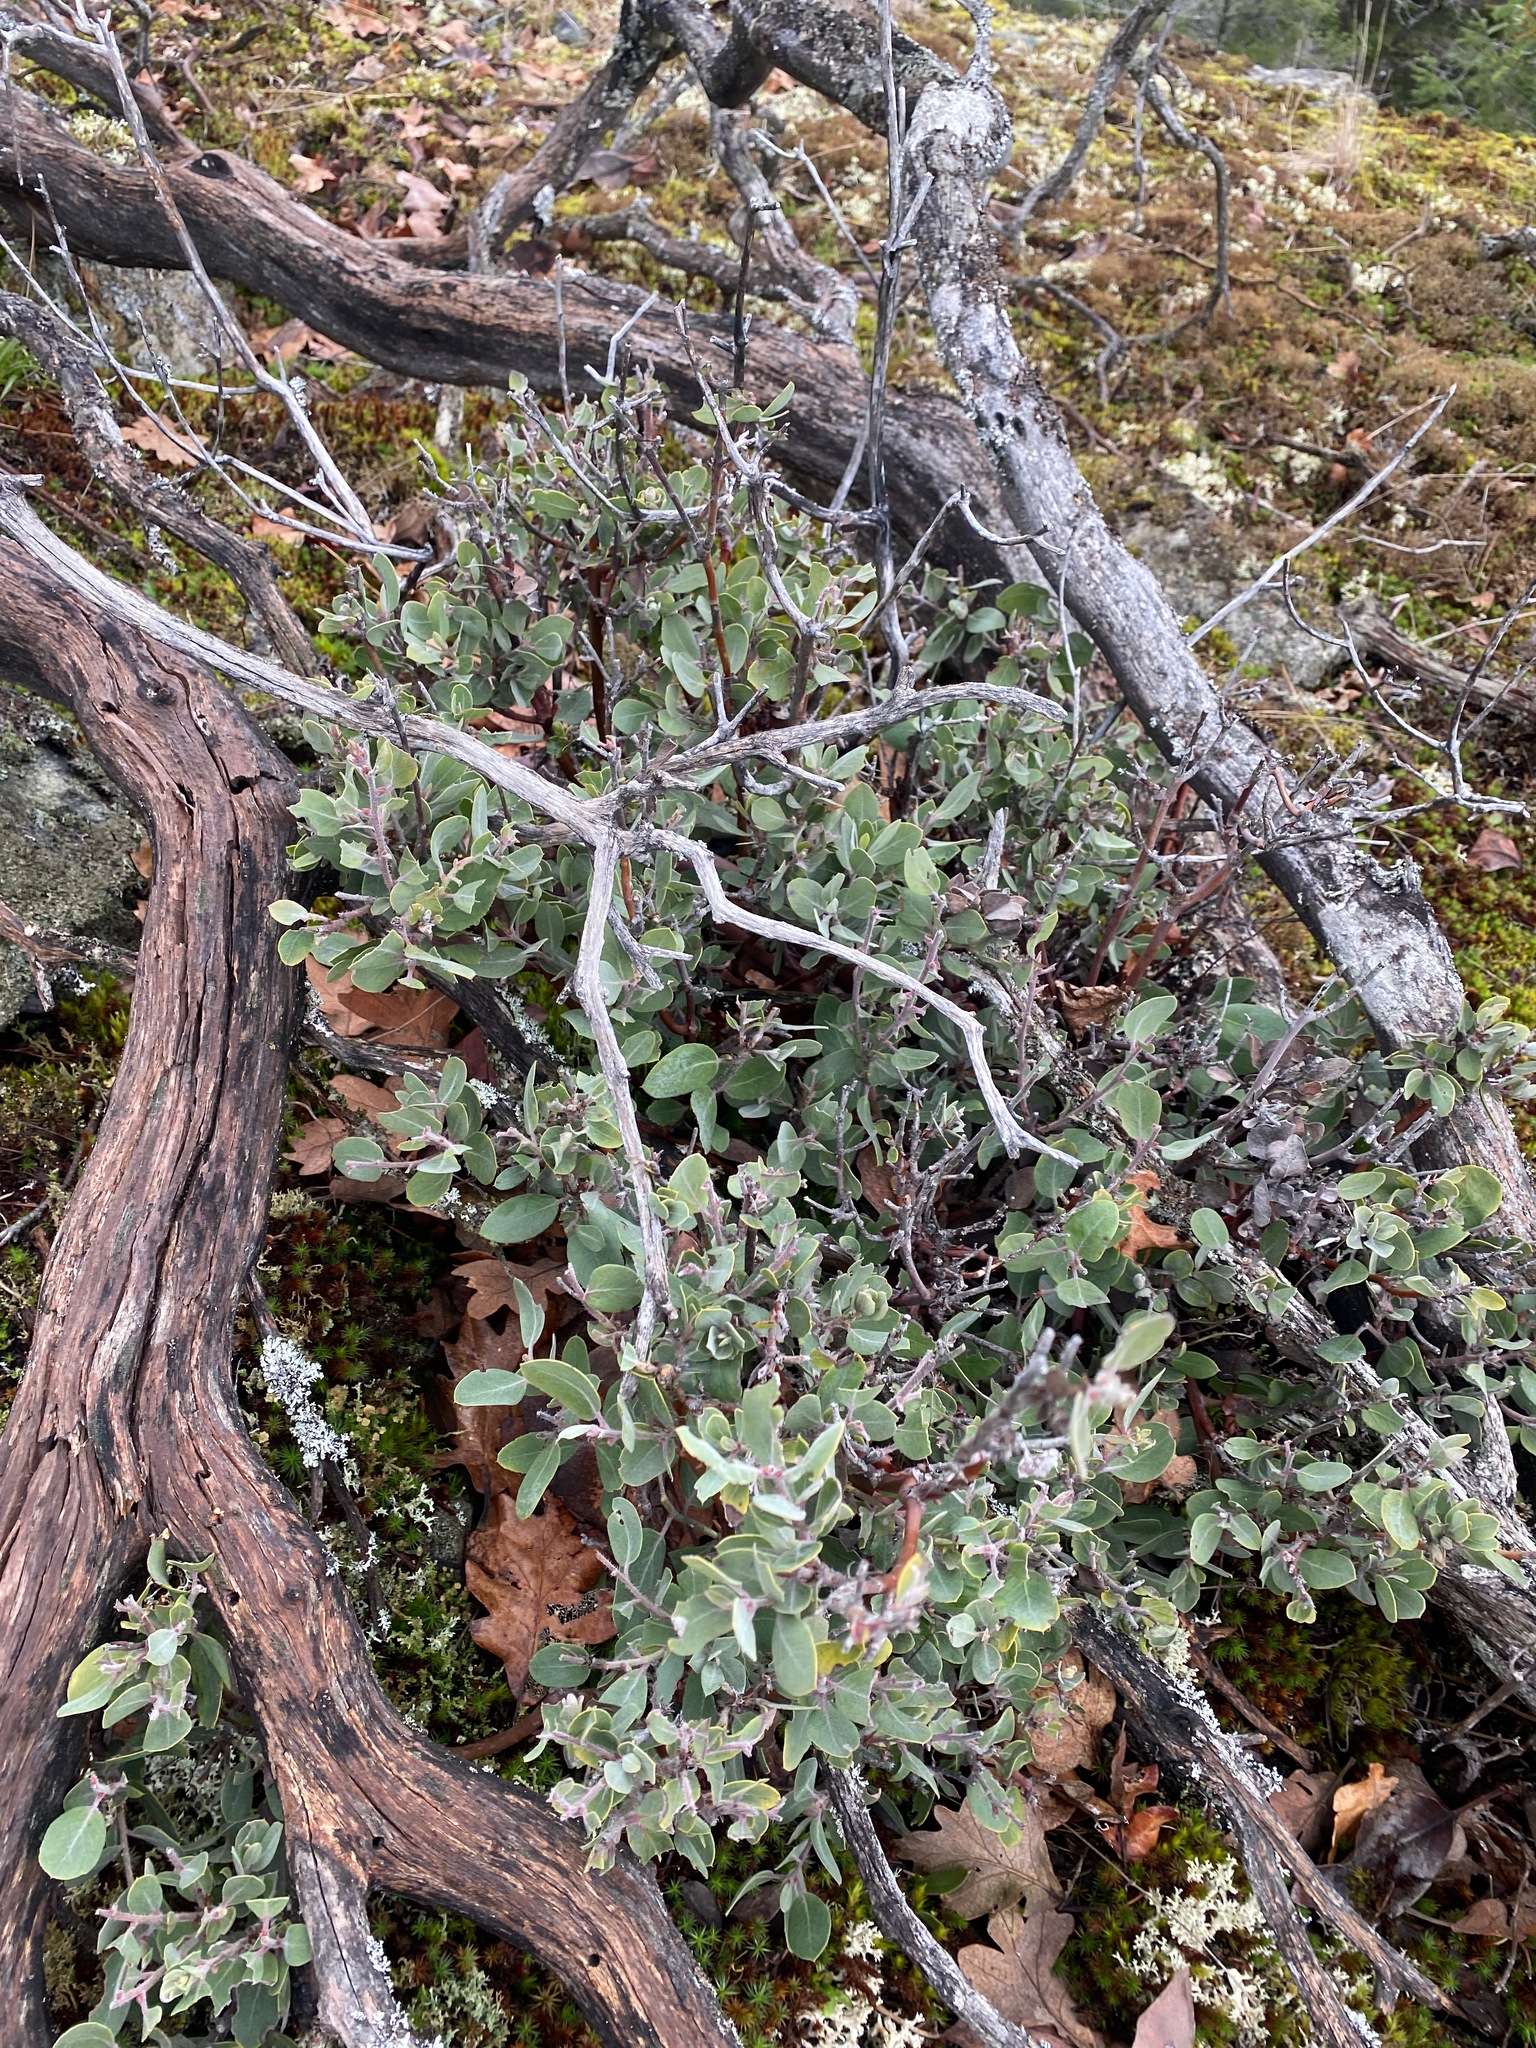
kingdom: Plantae
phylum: Tracheophyta
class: Magnoliopsida
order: Ericales
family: Ericaceae
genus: Arctostaphylos
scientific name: Arctostaphylos columbiana
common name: Bristly bearberry
